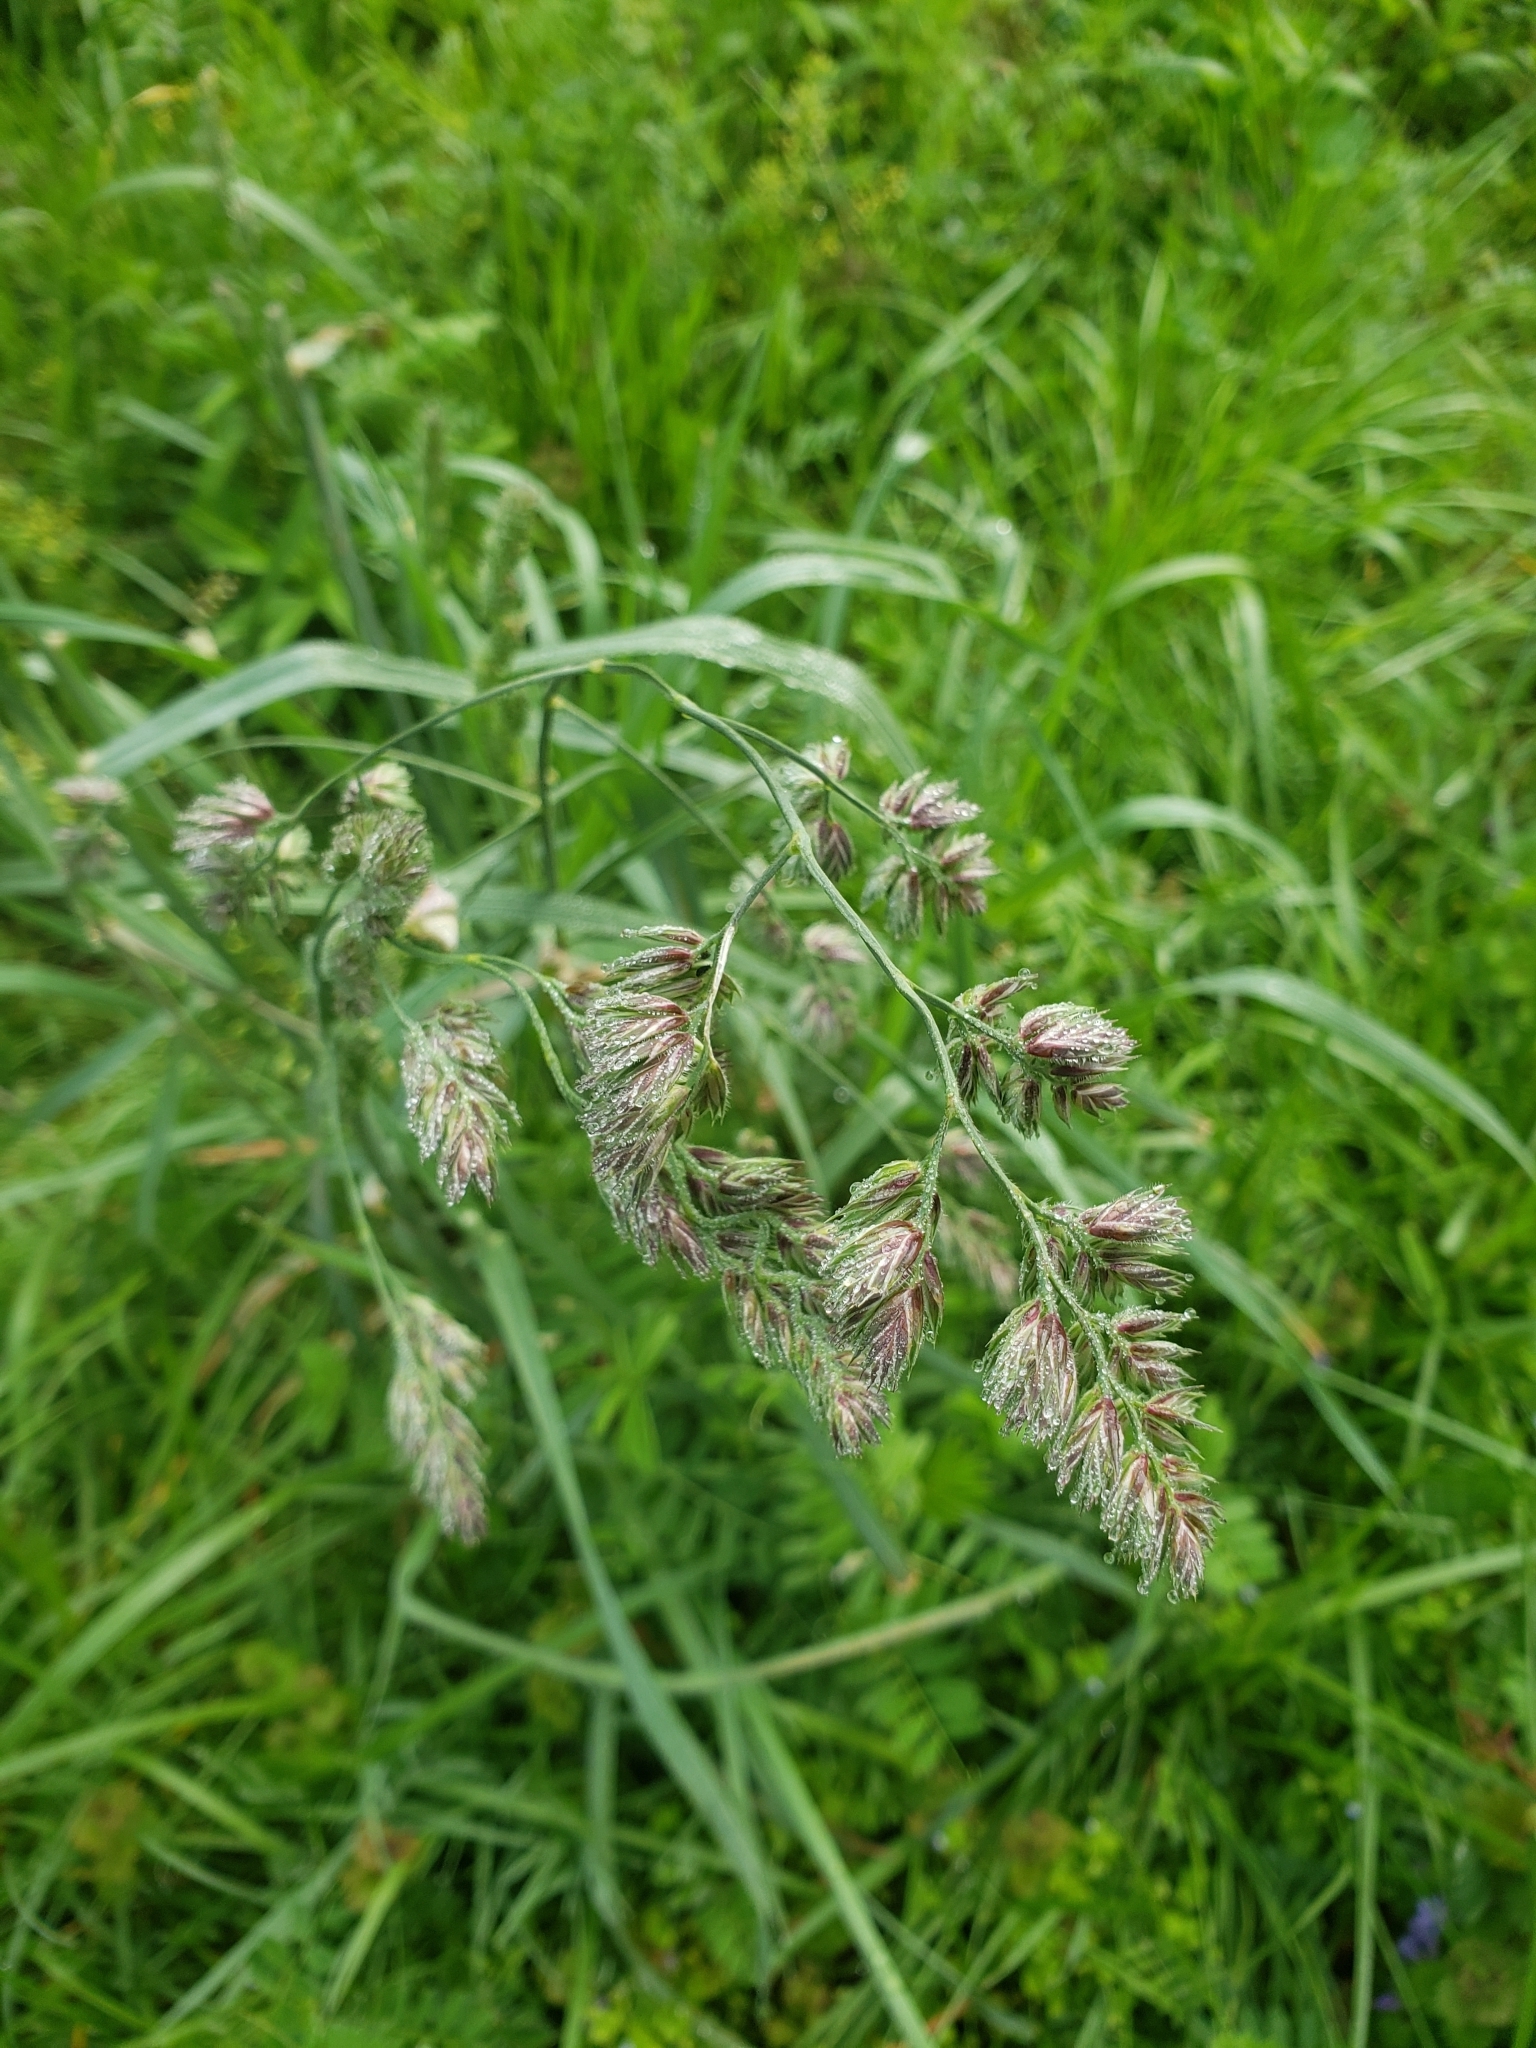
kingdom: Plantae
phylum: Tracheophyta
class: Liliopsida
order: Poales
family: Poaceae
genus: Dactylis
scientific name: Dactylis glomerata
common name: Orchardgrass
